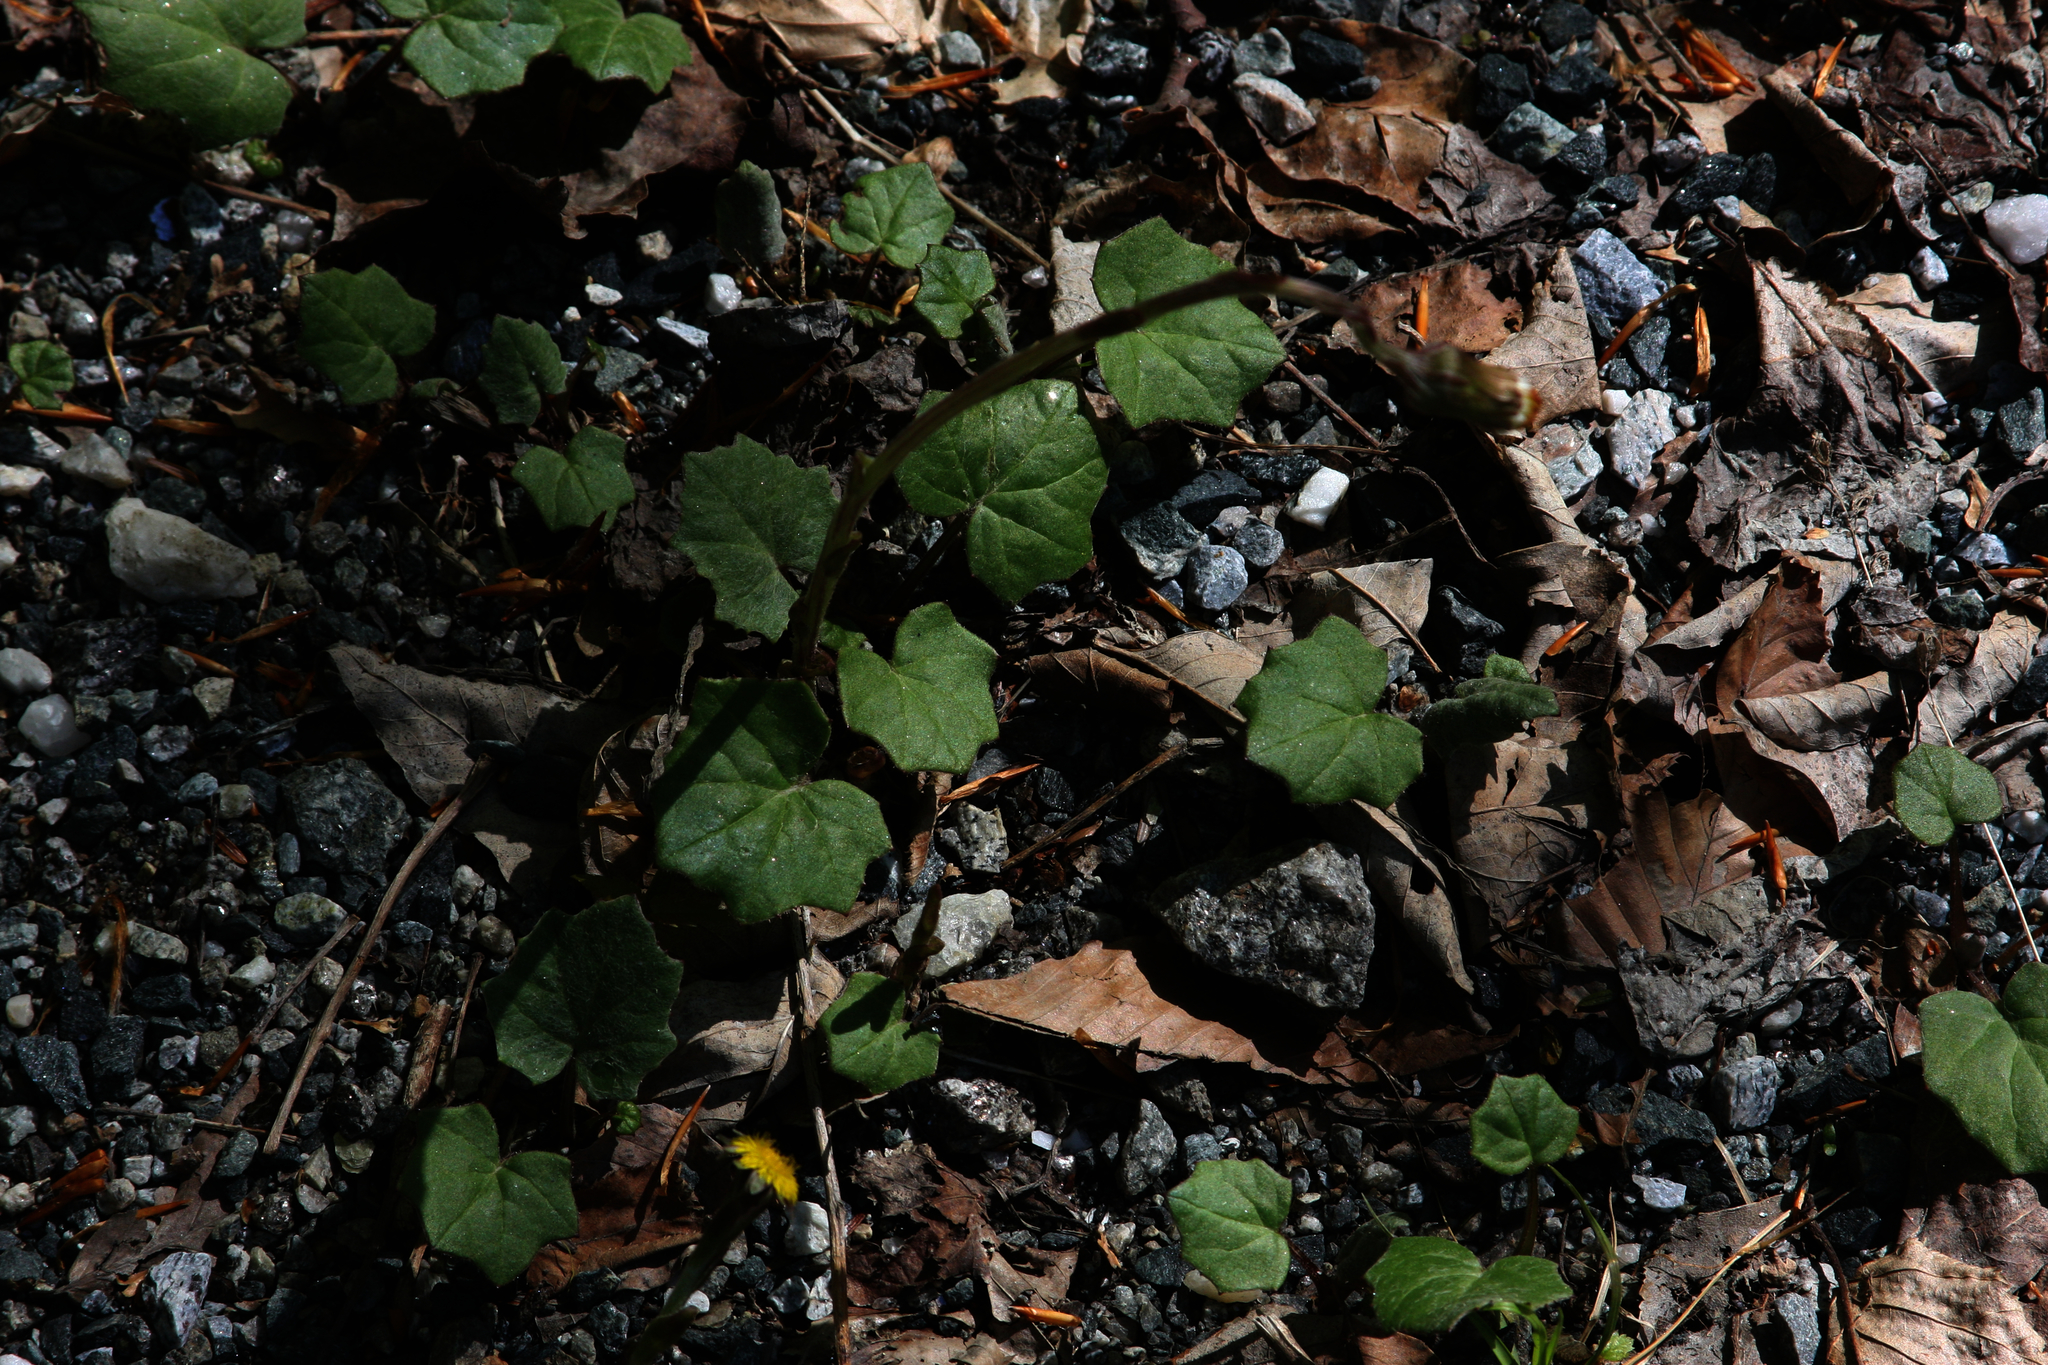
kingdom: Plantae
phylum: Tracheophyta
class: Magnoliopsida
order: Asterales
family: Asteraceae
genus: Tussilago
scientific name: Tussilago farfara
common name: Coltsfoot
